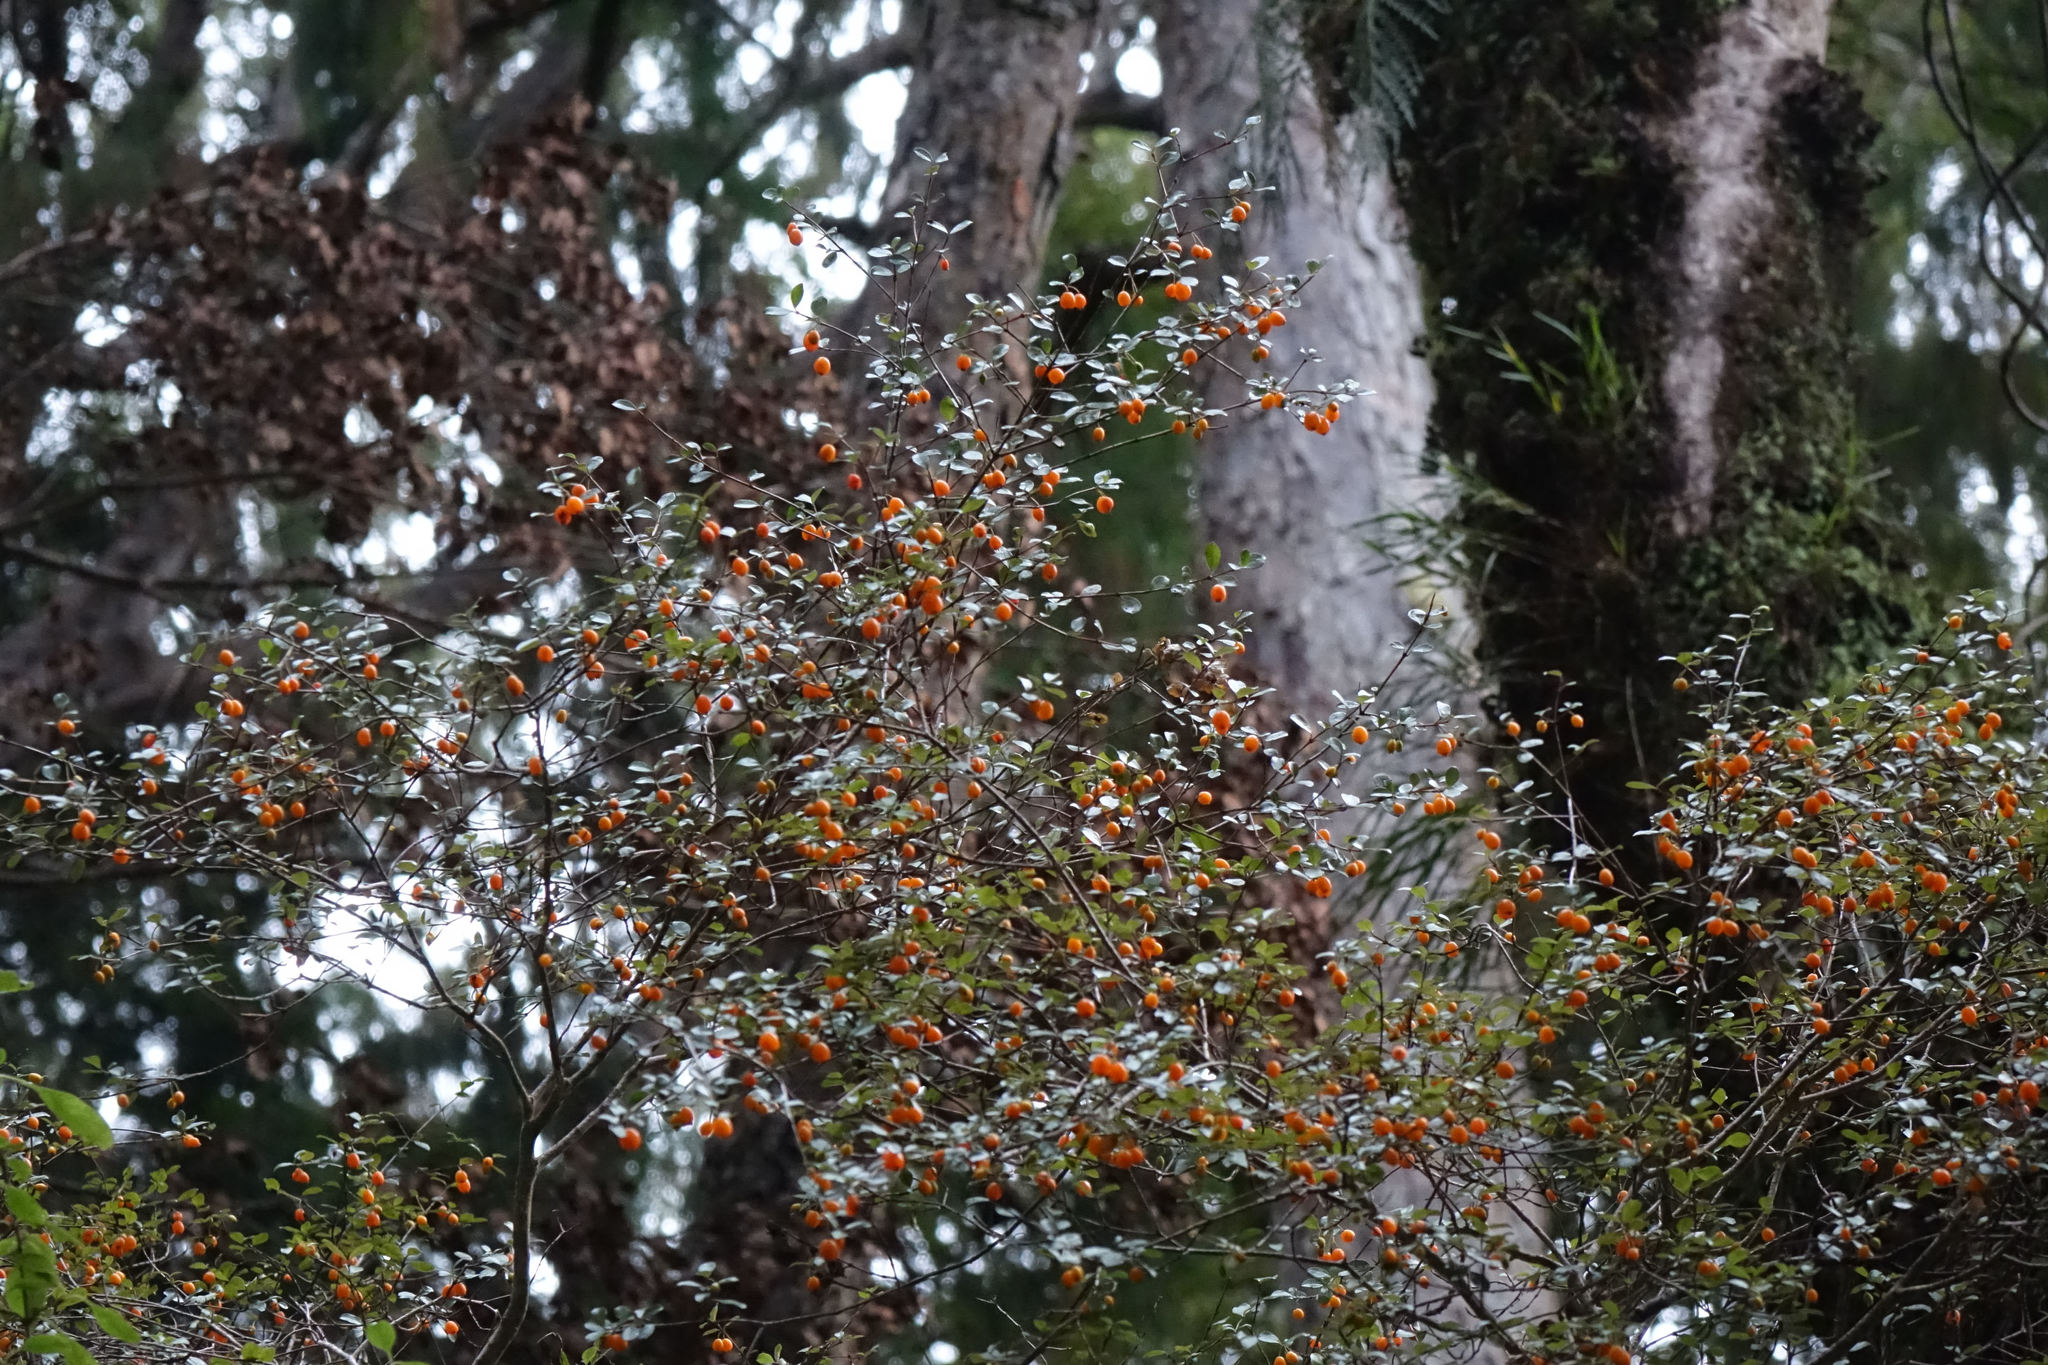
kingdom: Plantae
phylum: Tracheophyta
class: Magnoliopsida
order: Myrtales
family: Myrtaceae
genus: Neomyrtus
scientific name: Neomyrtus pedunculata
